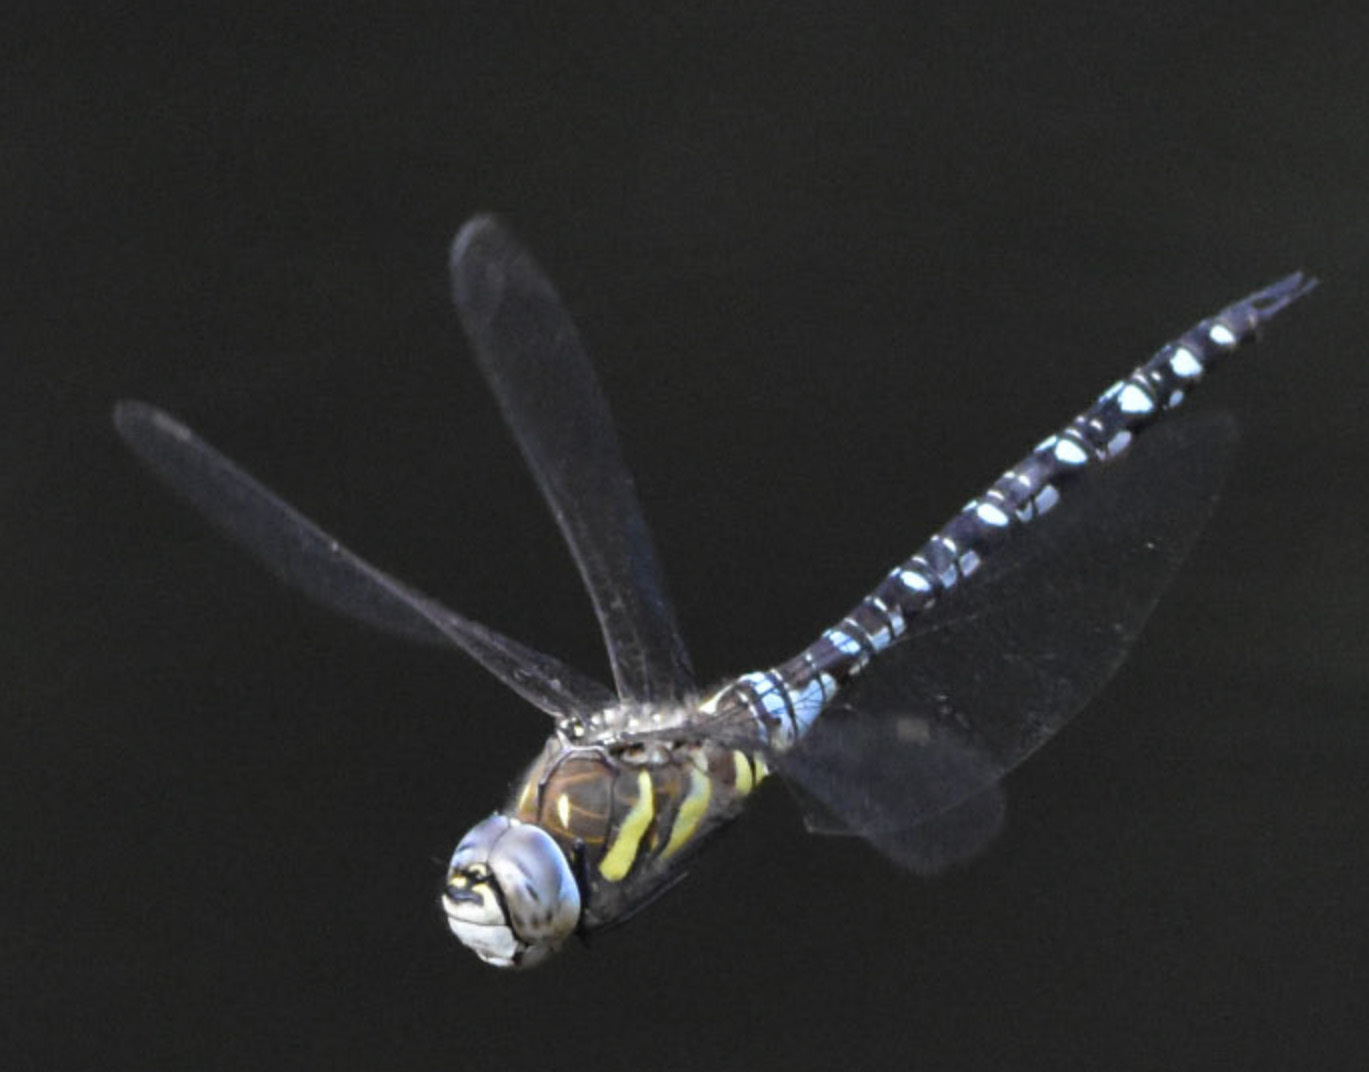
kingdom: Animalia
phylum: Arthropoda
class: Insecta
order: Odonata
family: Aeshnidae
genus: Aeshna
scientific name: Aeshna mixta
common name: Migrant hawker
